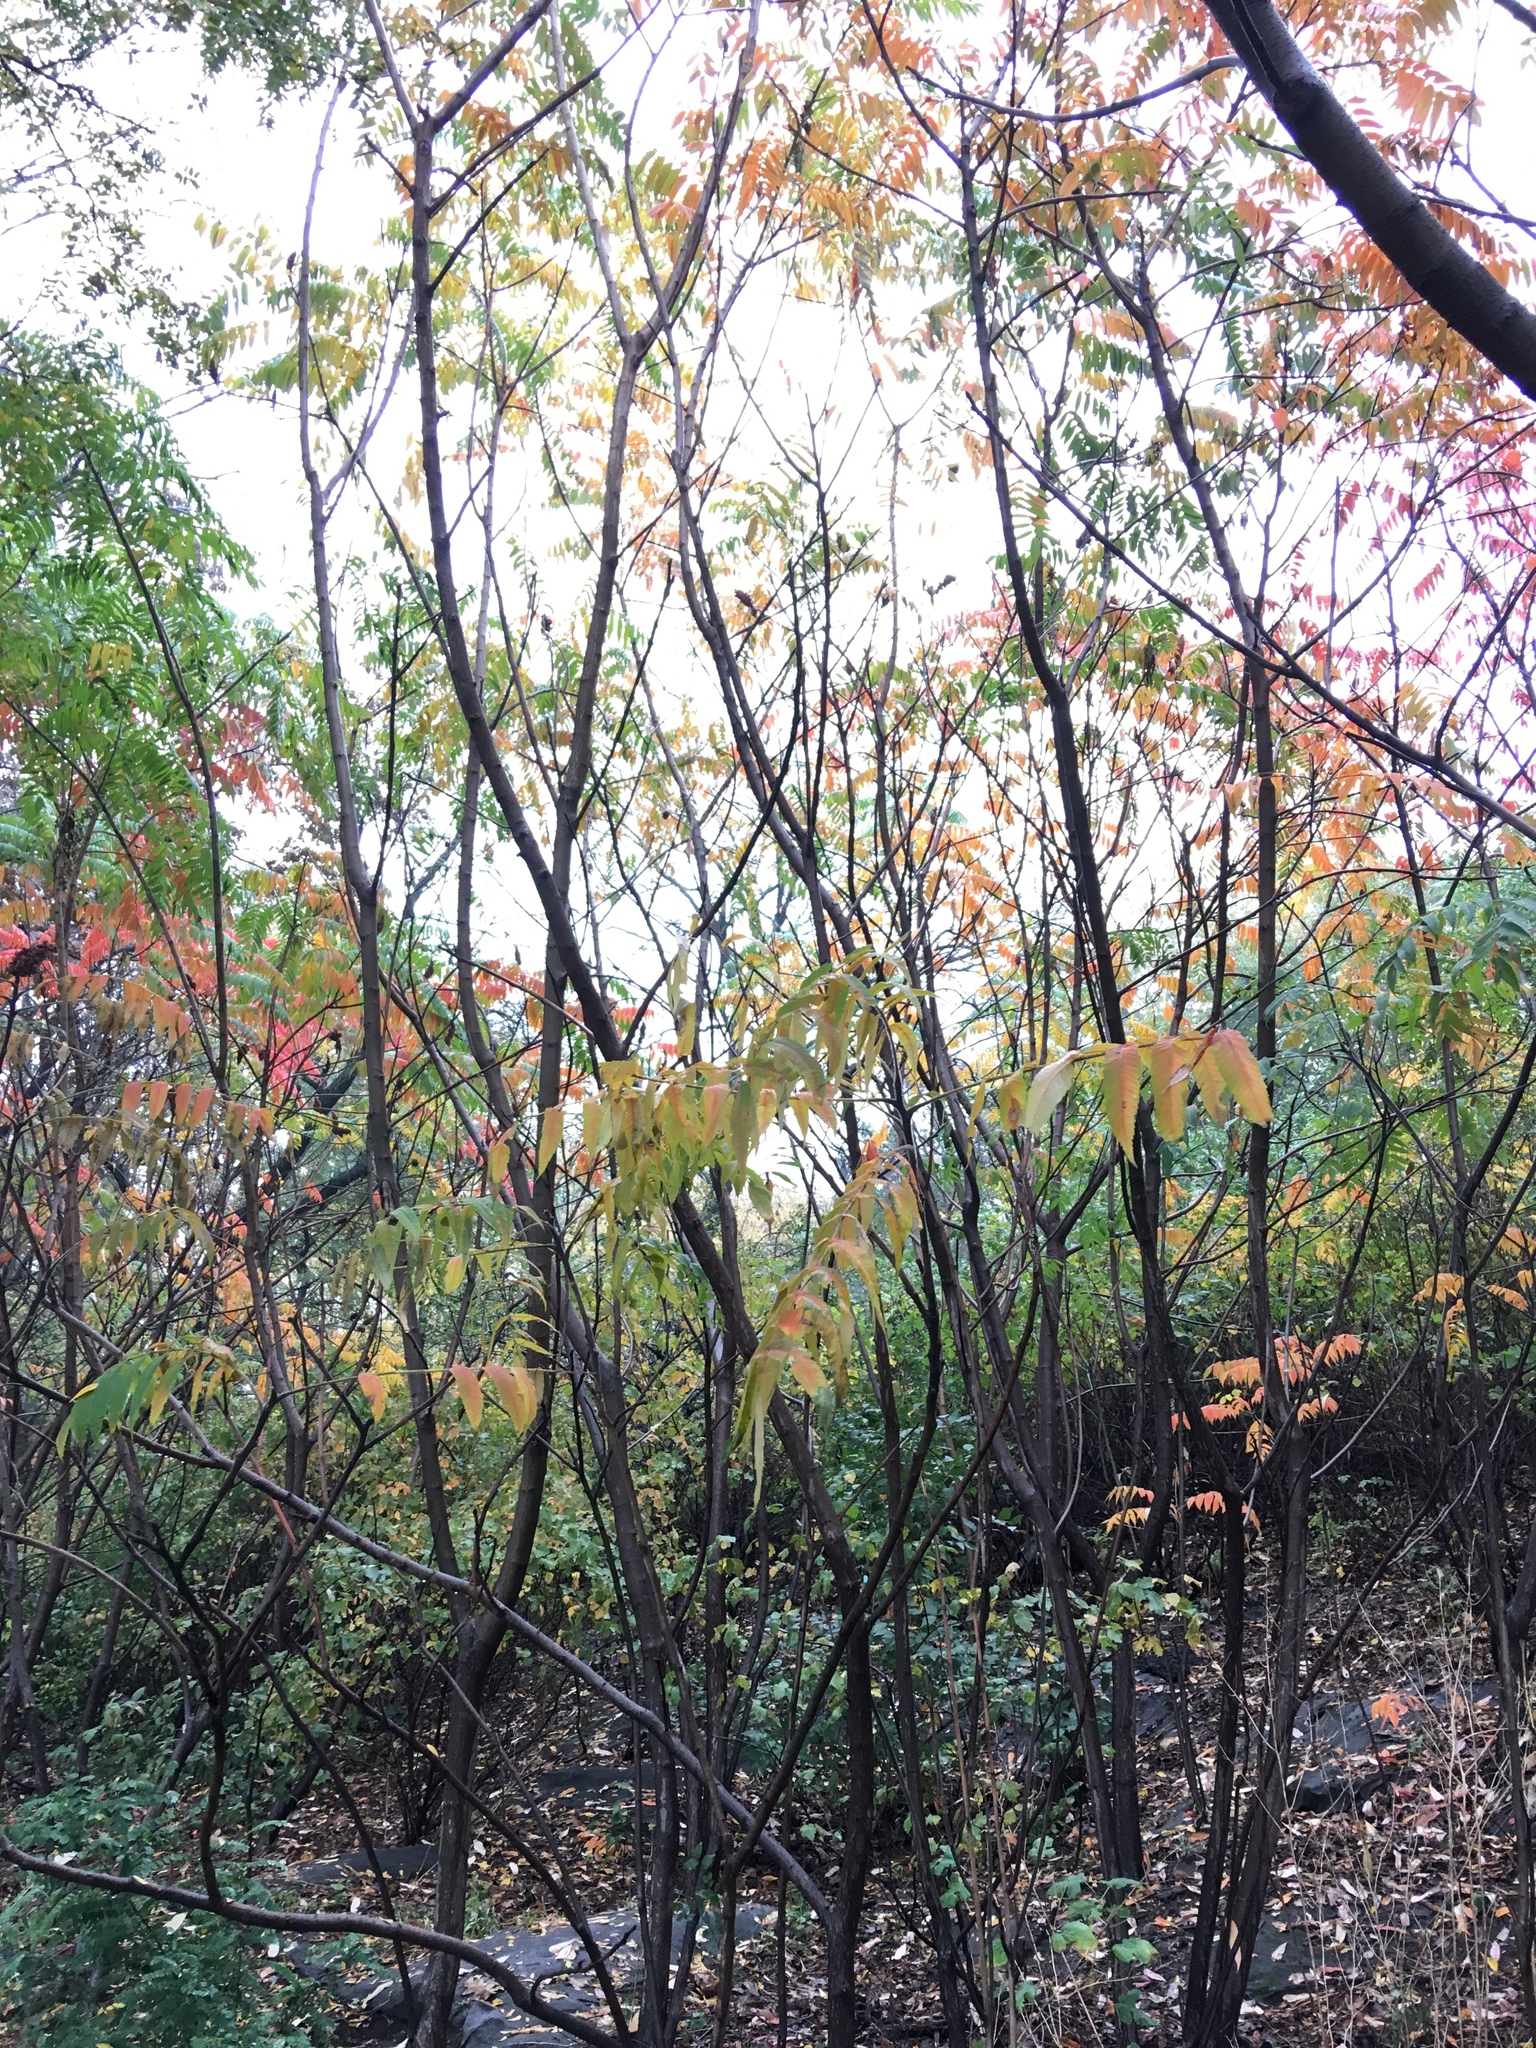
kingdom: Plantae
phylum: Tracheophyta
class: Magnoliopsida
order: Sapindales
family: Anacardiaceae
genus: Rhus
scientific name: Rhus typhina
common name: Staghorn sumac
